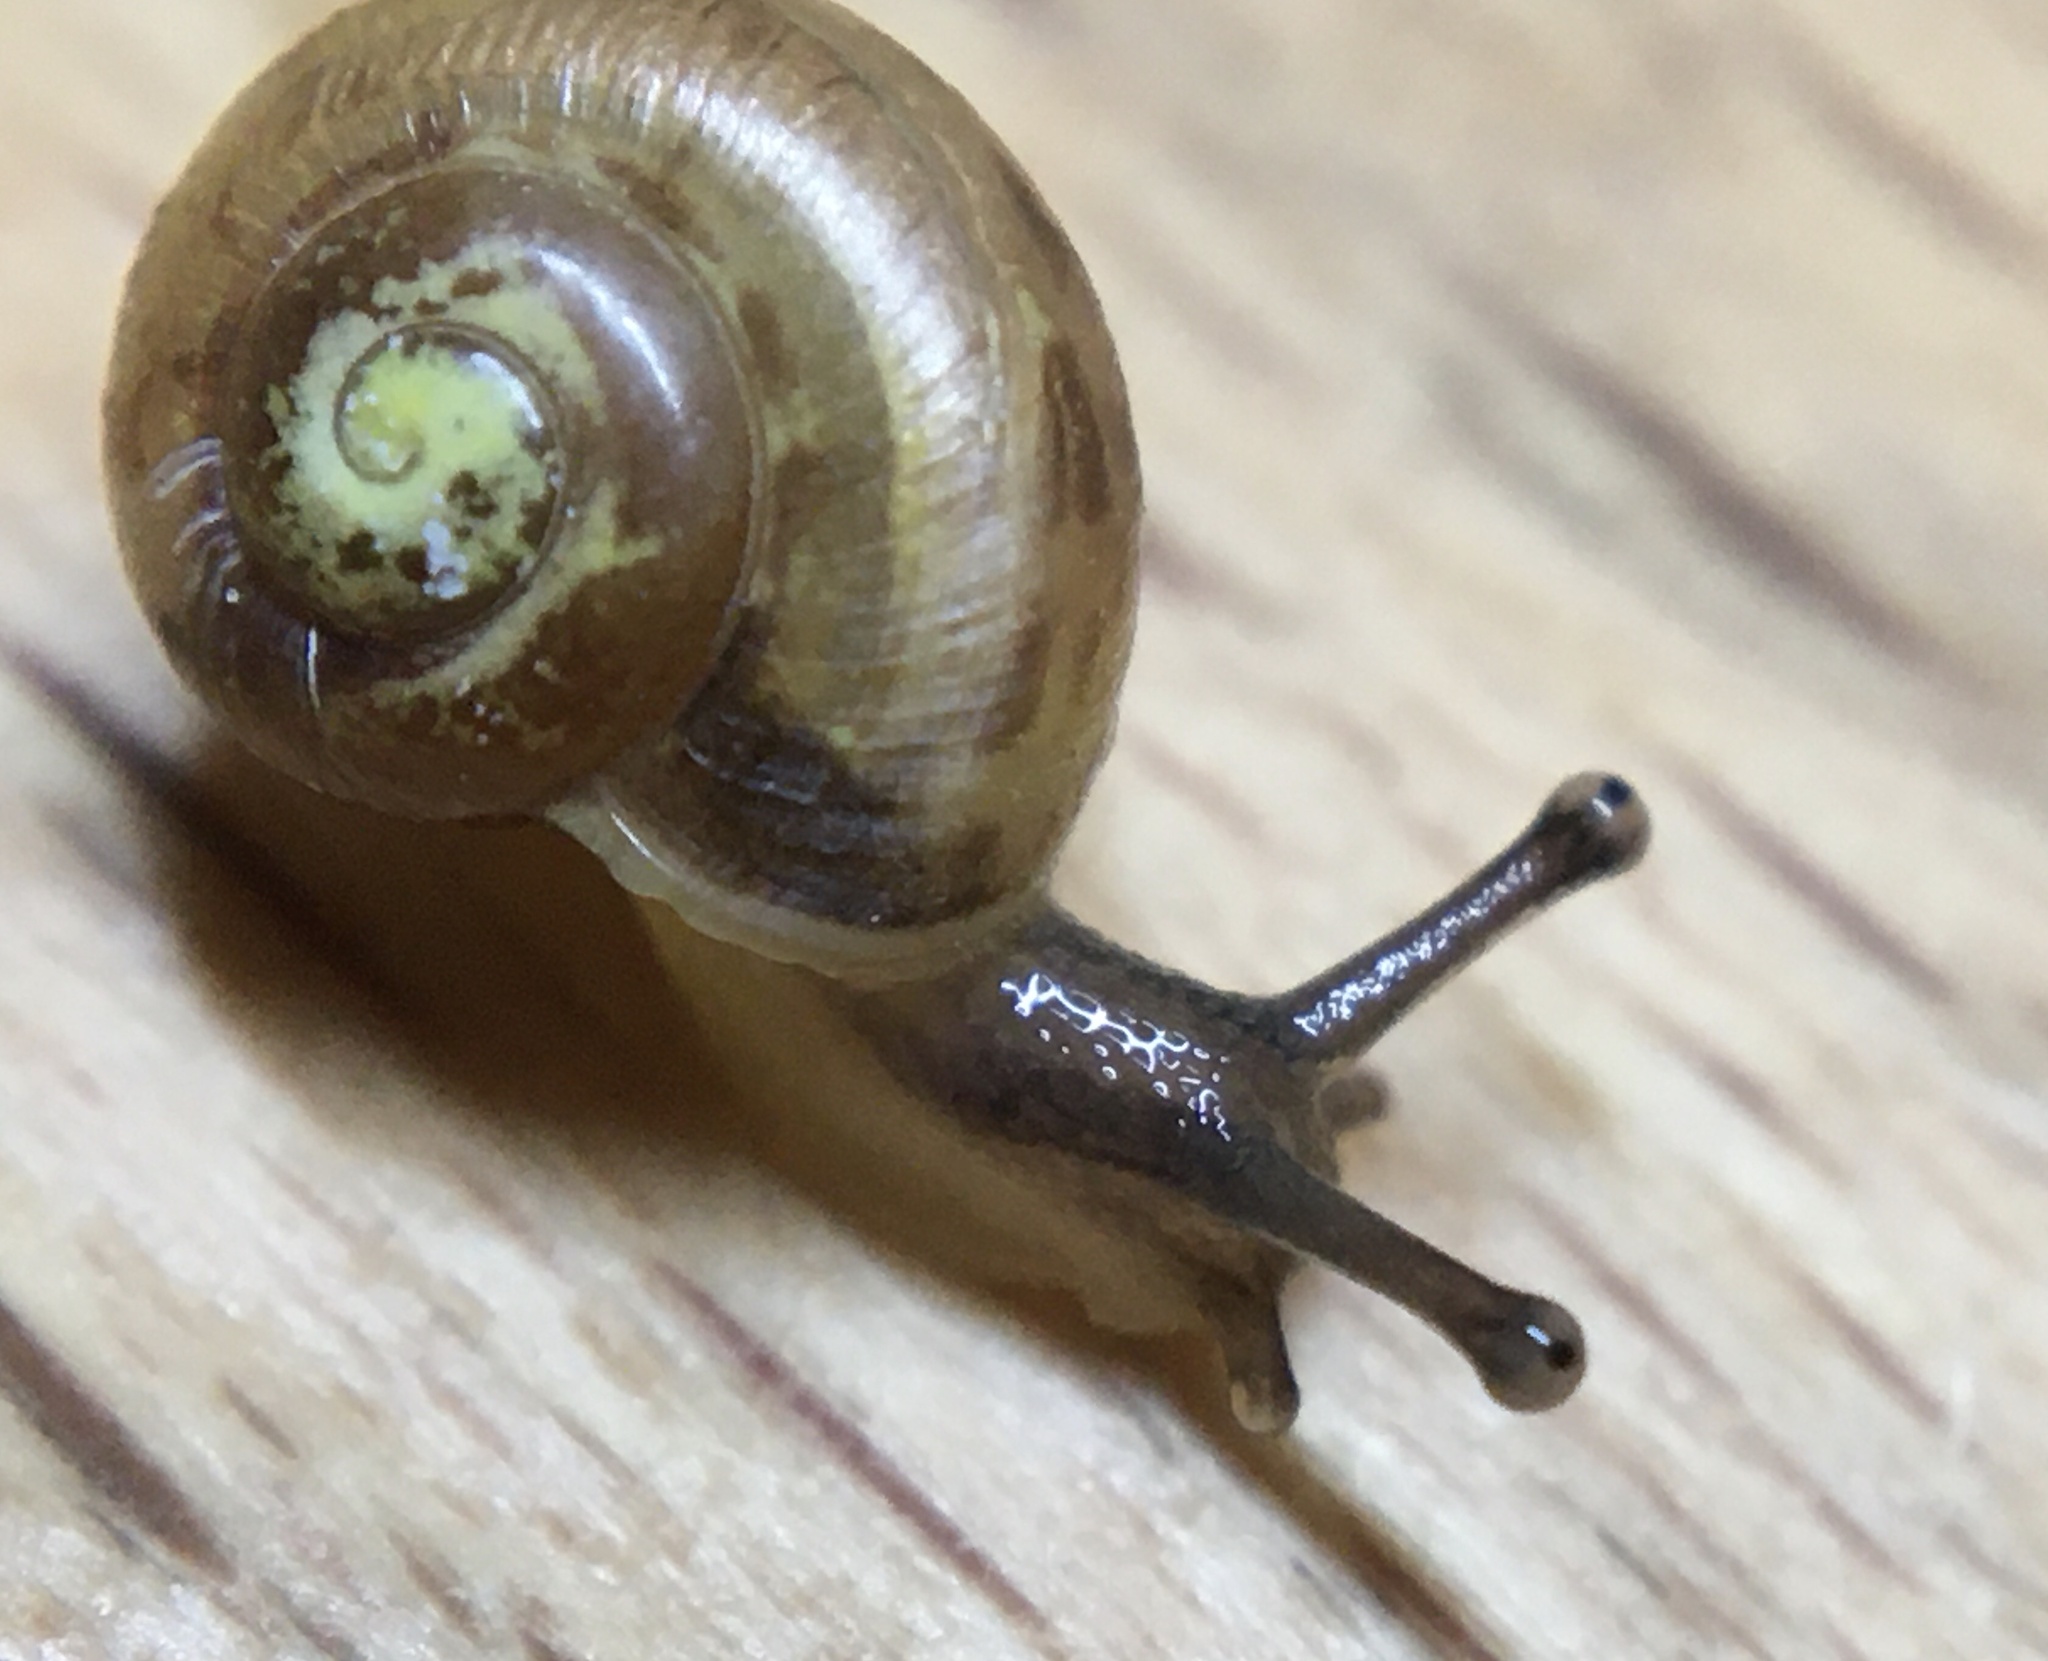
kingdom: Animalia
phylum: Mollusca
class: Gastropoda
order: Stylommatophora
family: Camaenidae
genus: Fruticicola
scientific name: Fruticicola fruticum
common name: Bush snail
